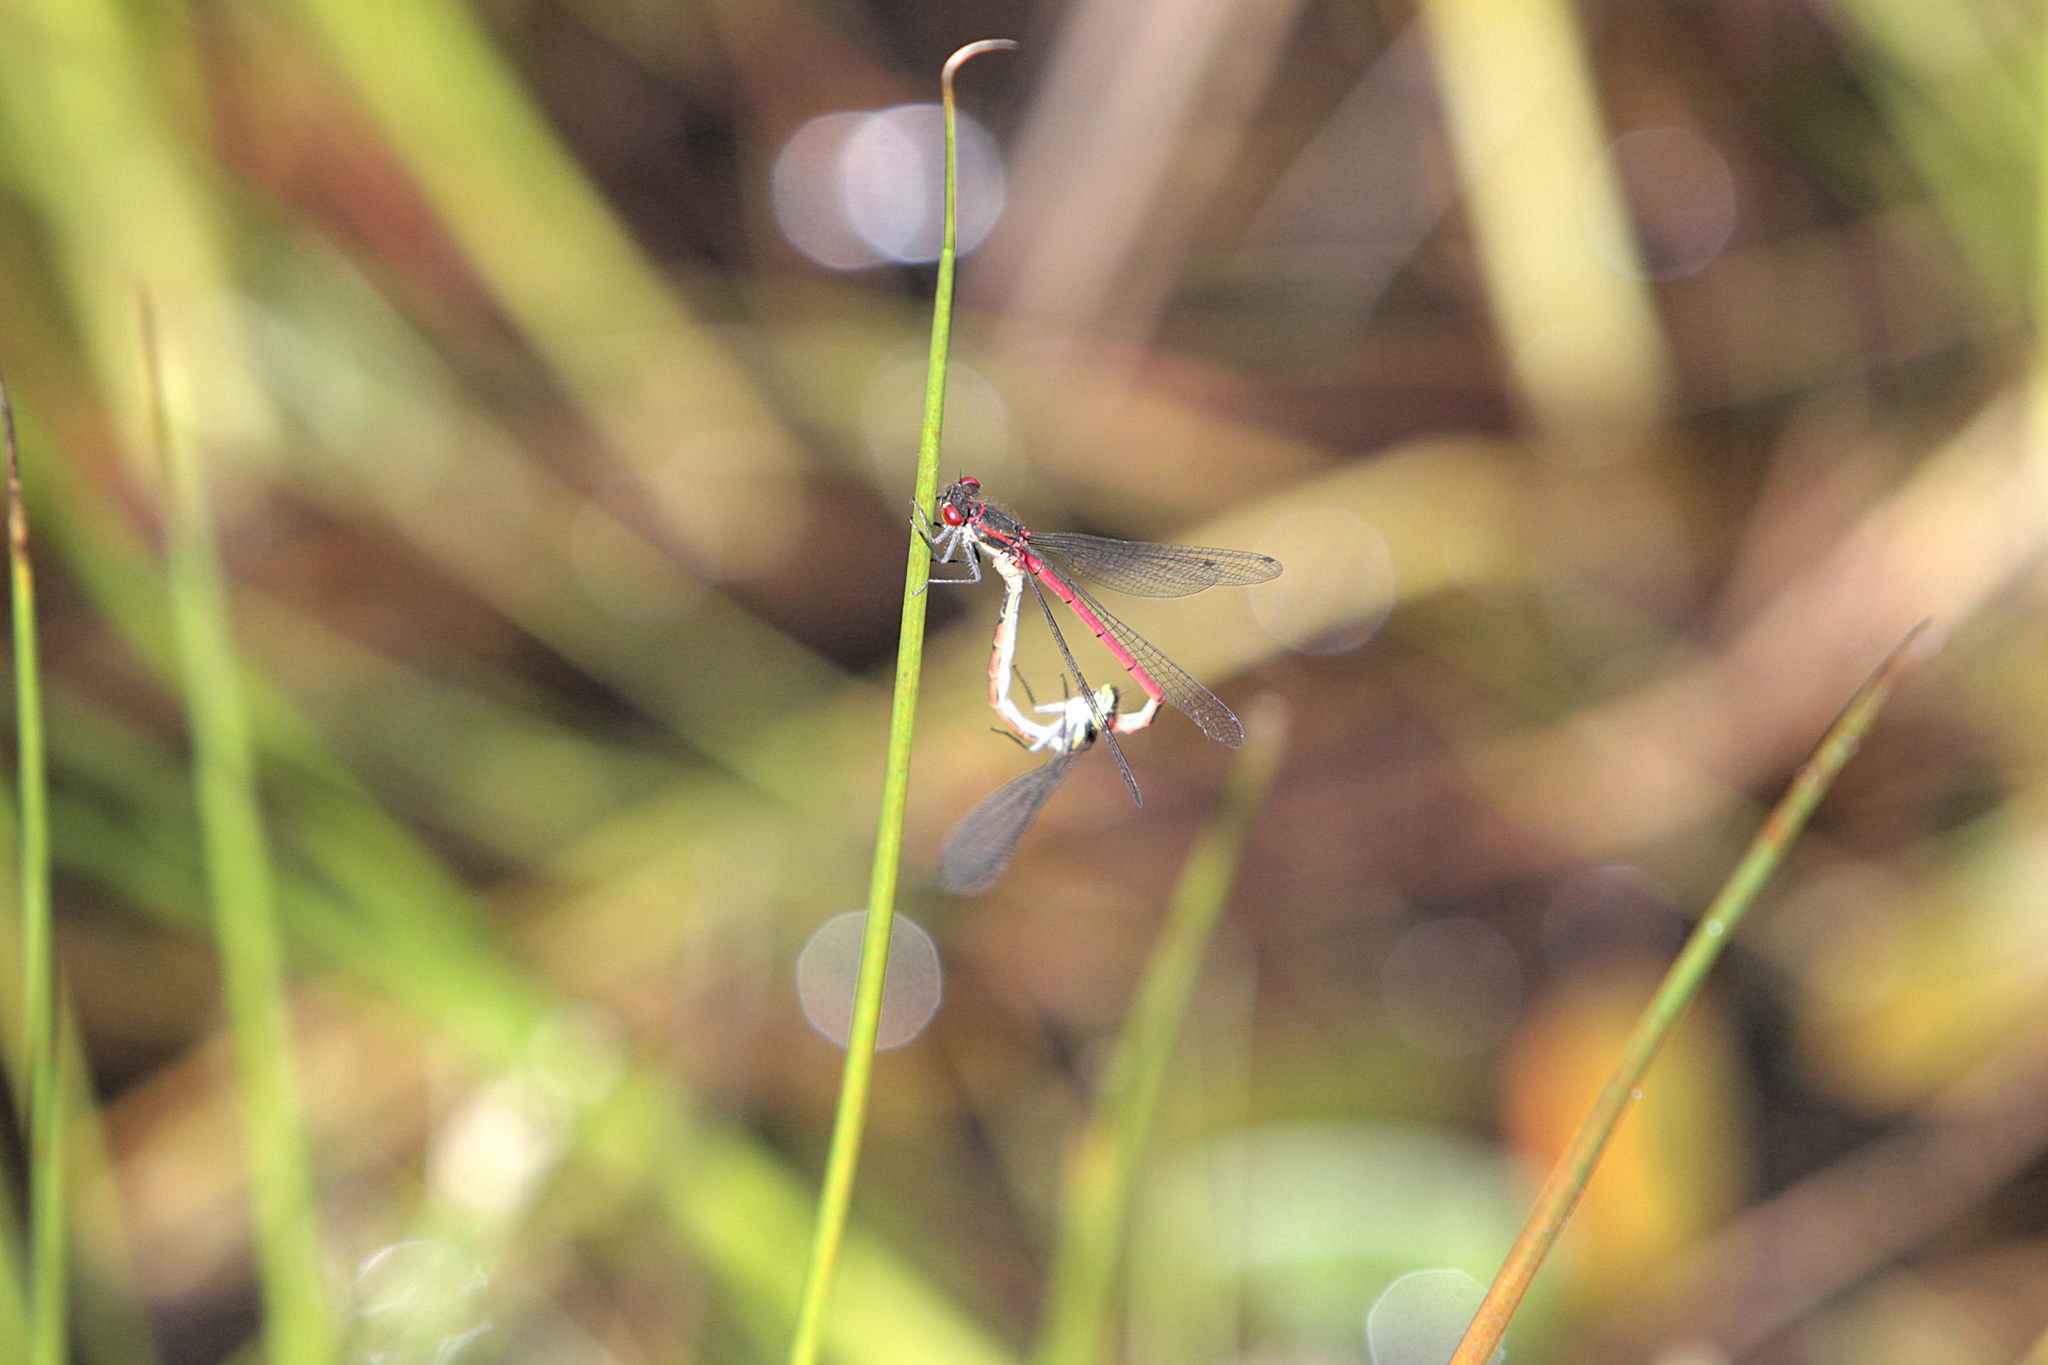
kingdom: Animalia
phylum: Arthropoda
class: Insecta
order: Odonata
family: Coenagrionidae
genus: Pyrrhosoma
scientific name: Pyrrhosoma nymphula
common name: Large red damsel
